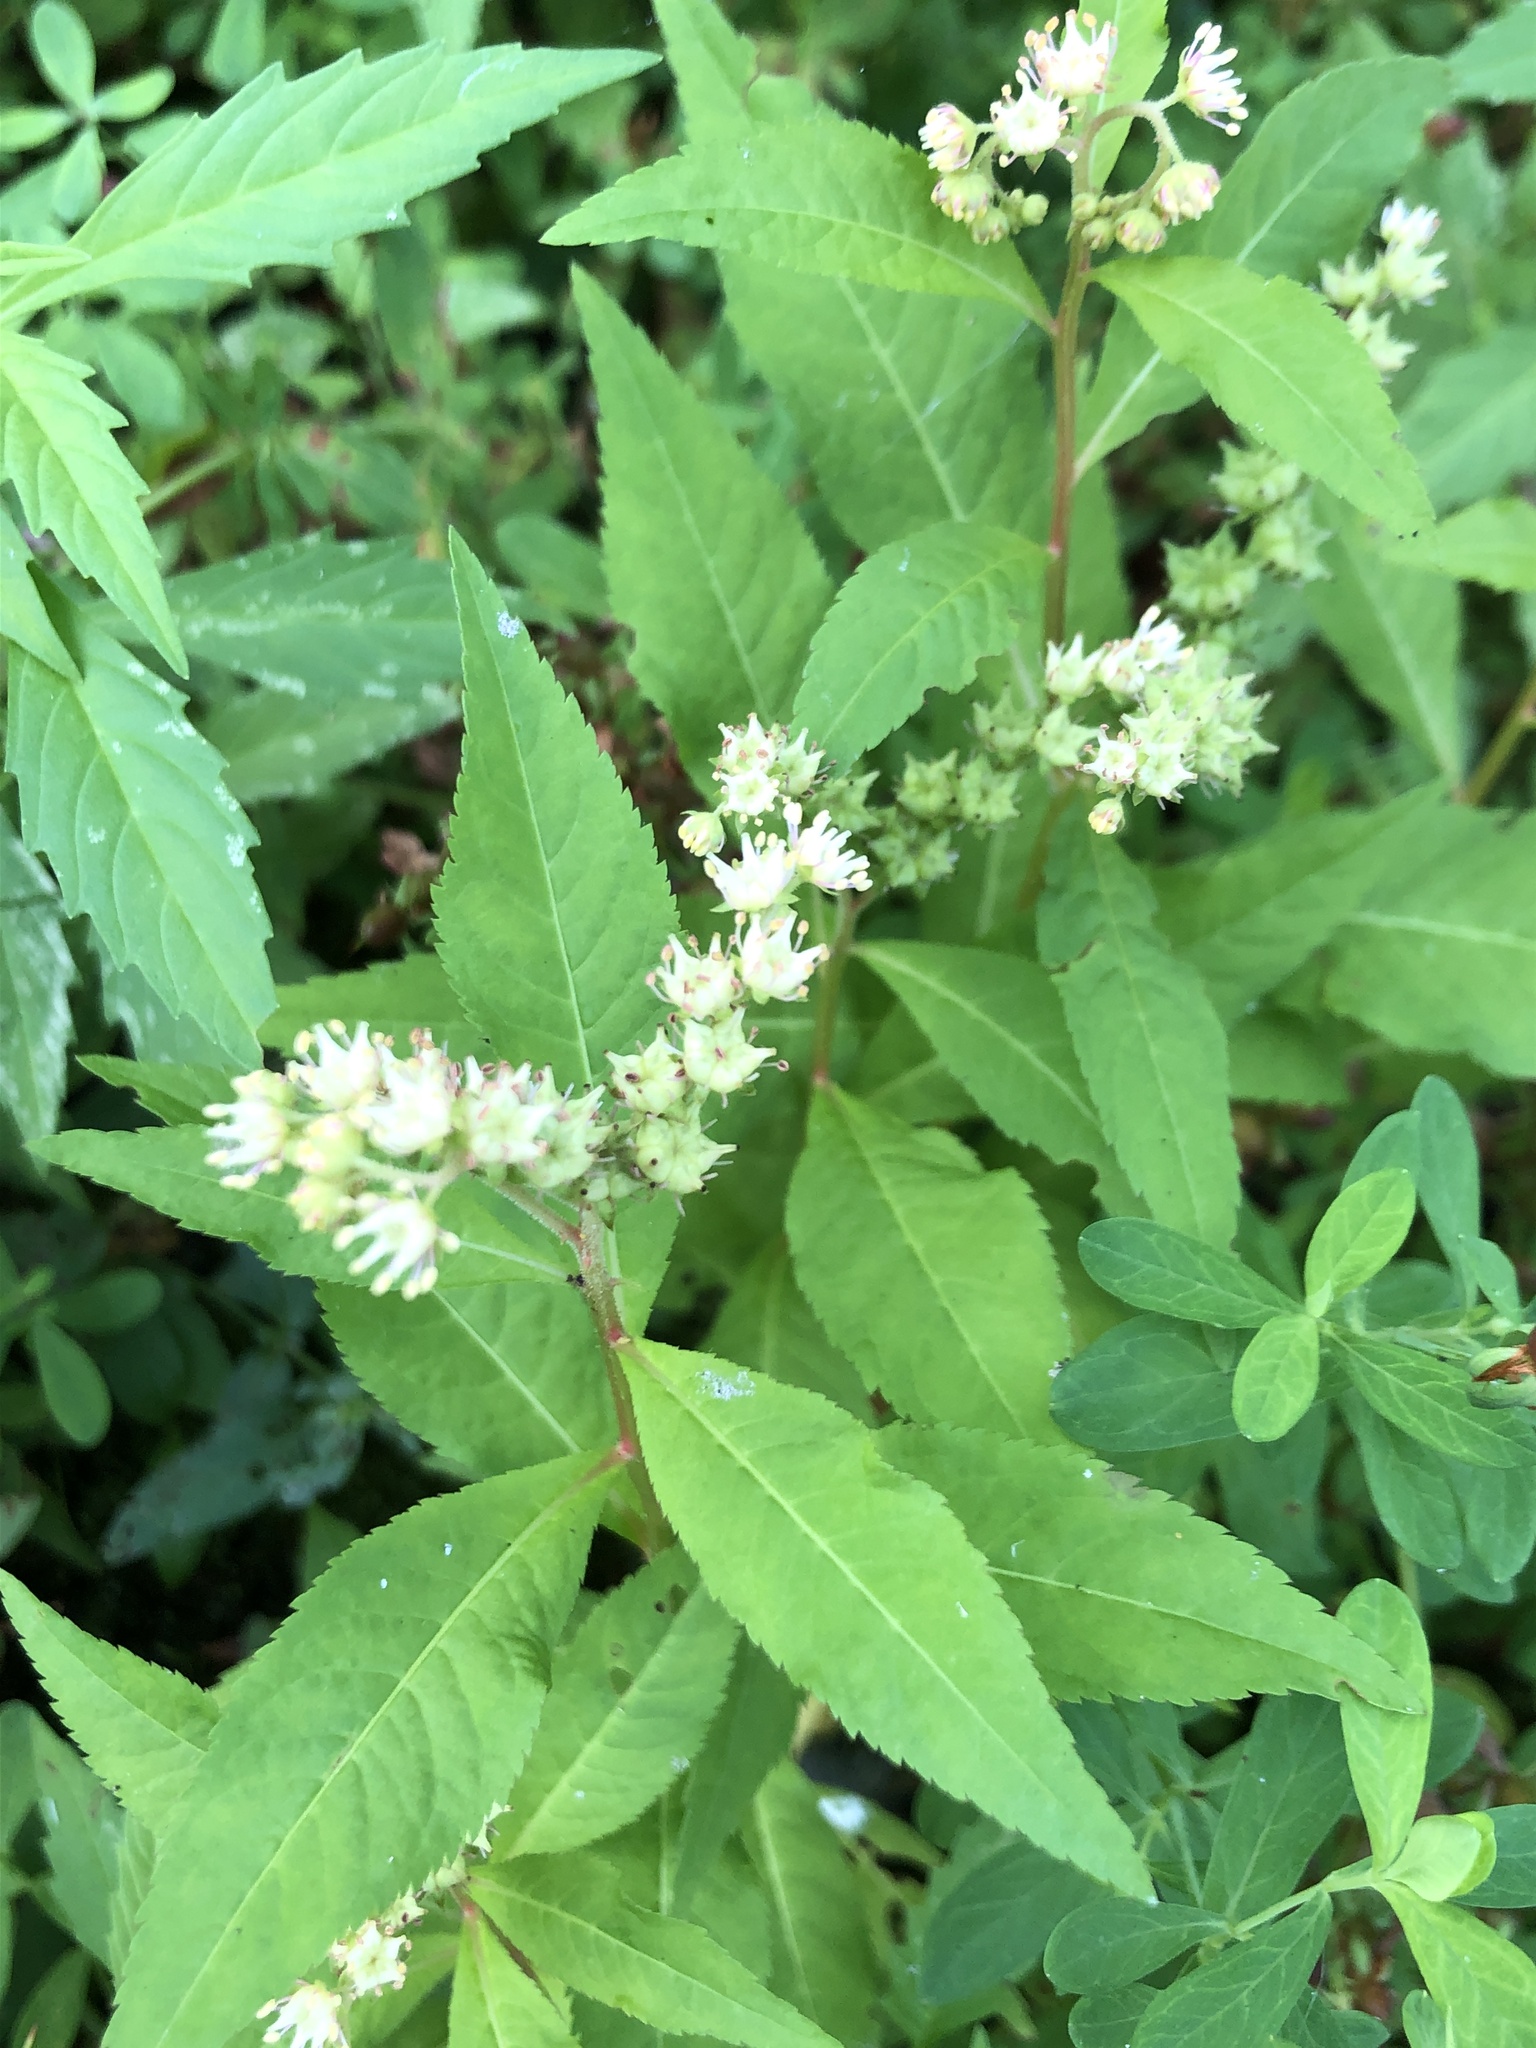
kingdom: Plantae
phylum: Tracheophyta
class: Magnoliopsida
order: Saxifragales
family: Penthoraceae
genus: Penthorum
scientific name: Penthorum sedoides
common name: Ditch stonecrop
